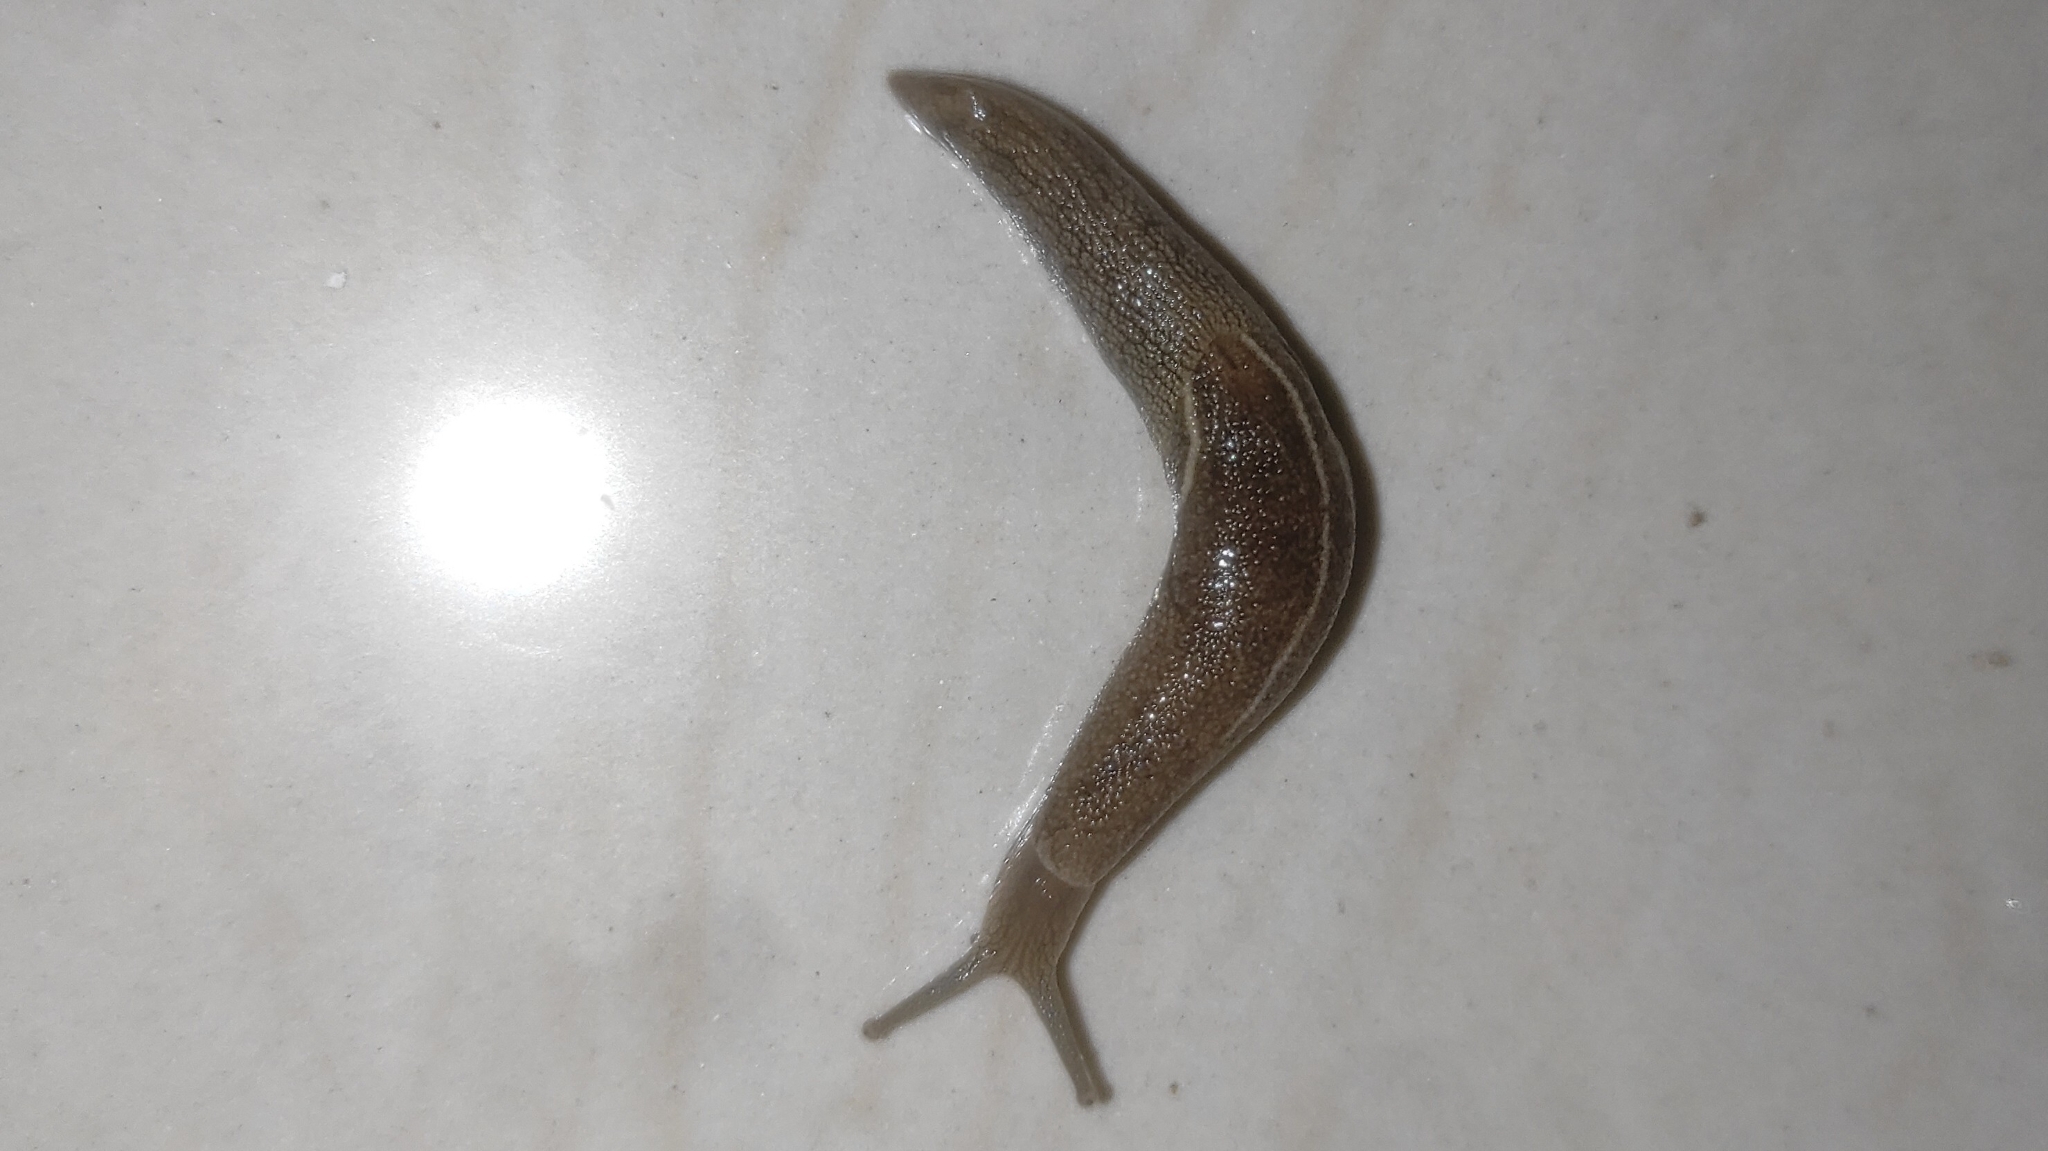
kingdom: Animalia
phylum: Mollusca
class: Gastropoda
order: Stylommatophora
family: Ariophantidae
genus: Mariaella
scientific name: Mariaella dussumieri
